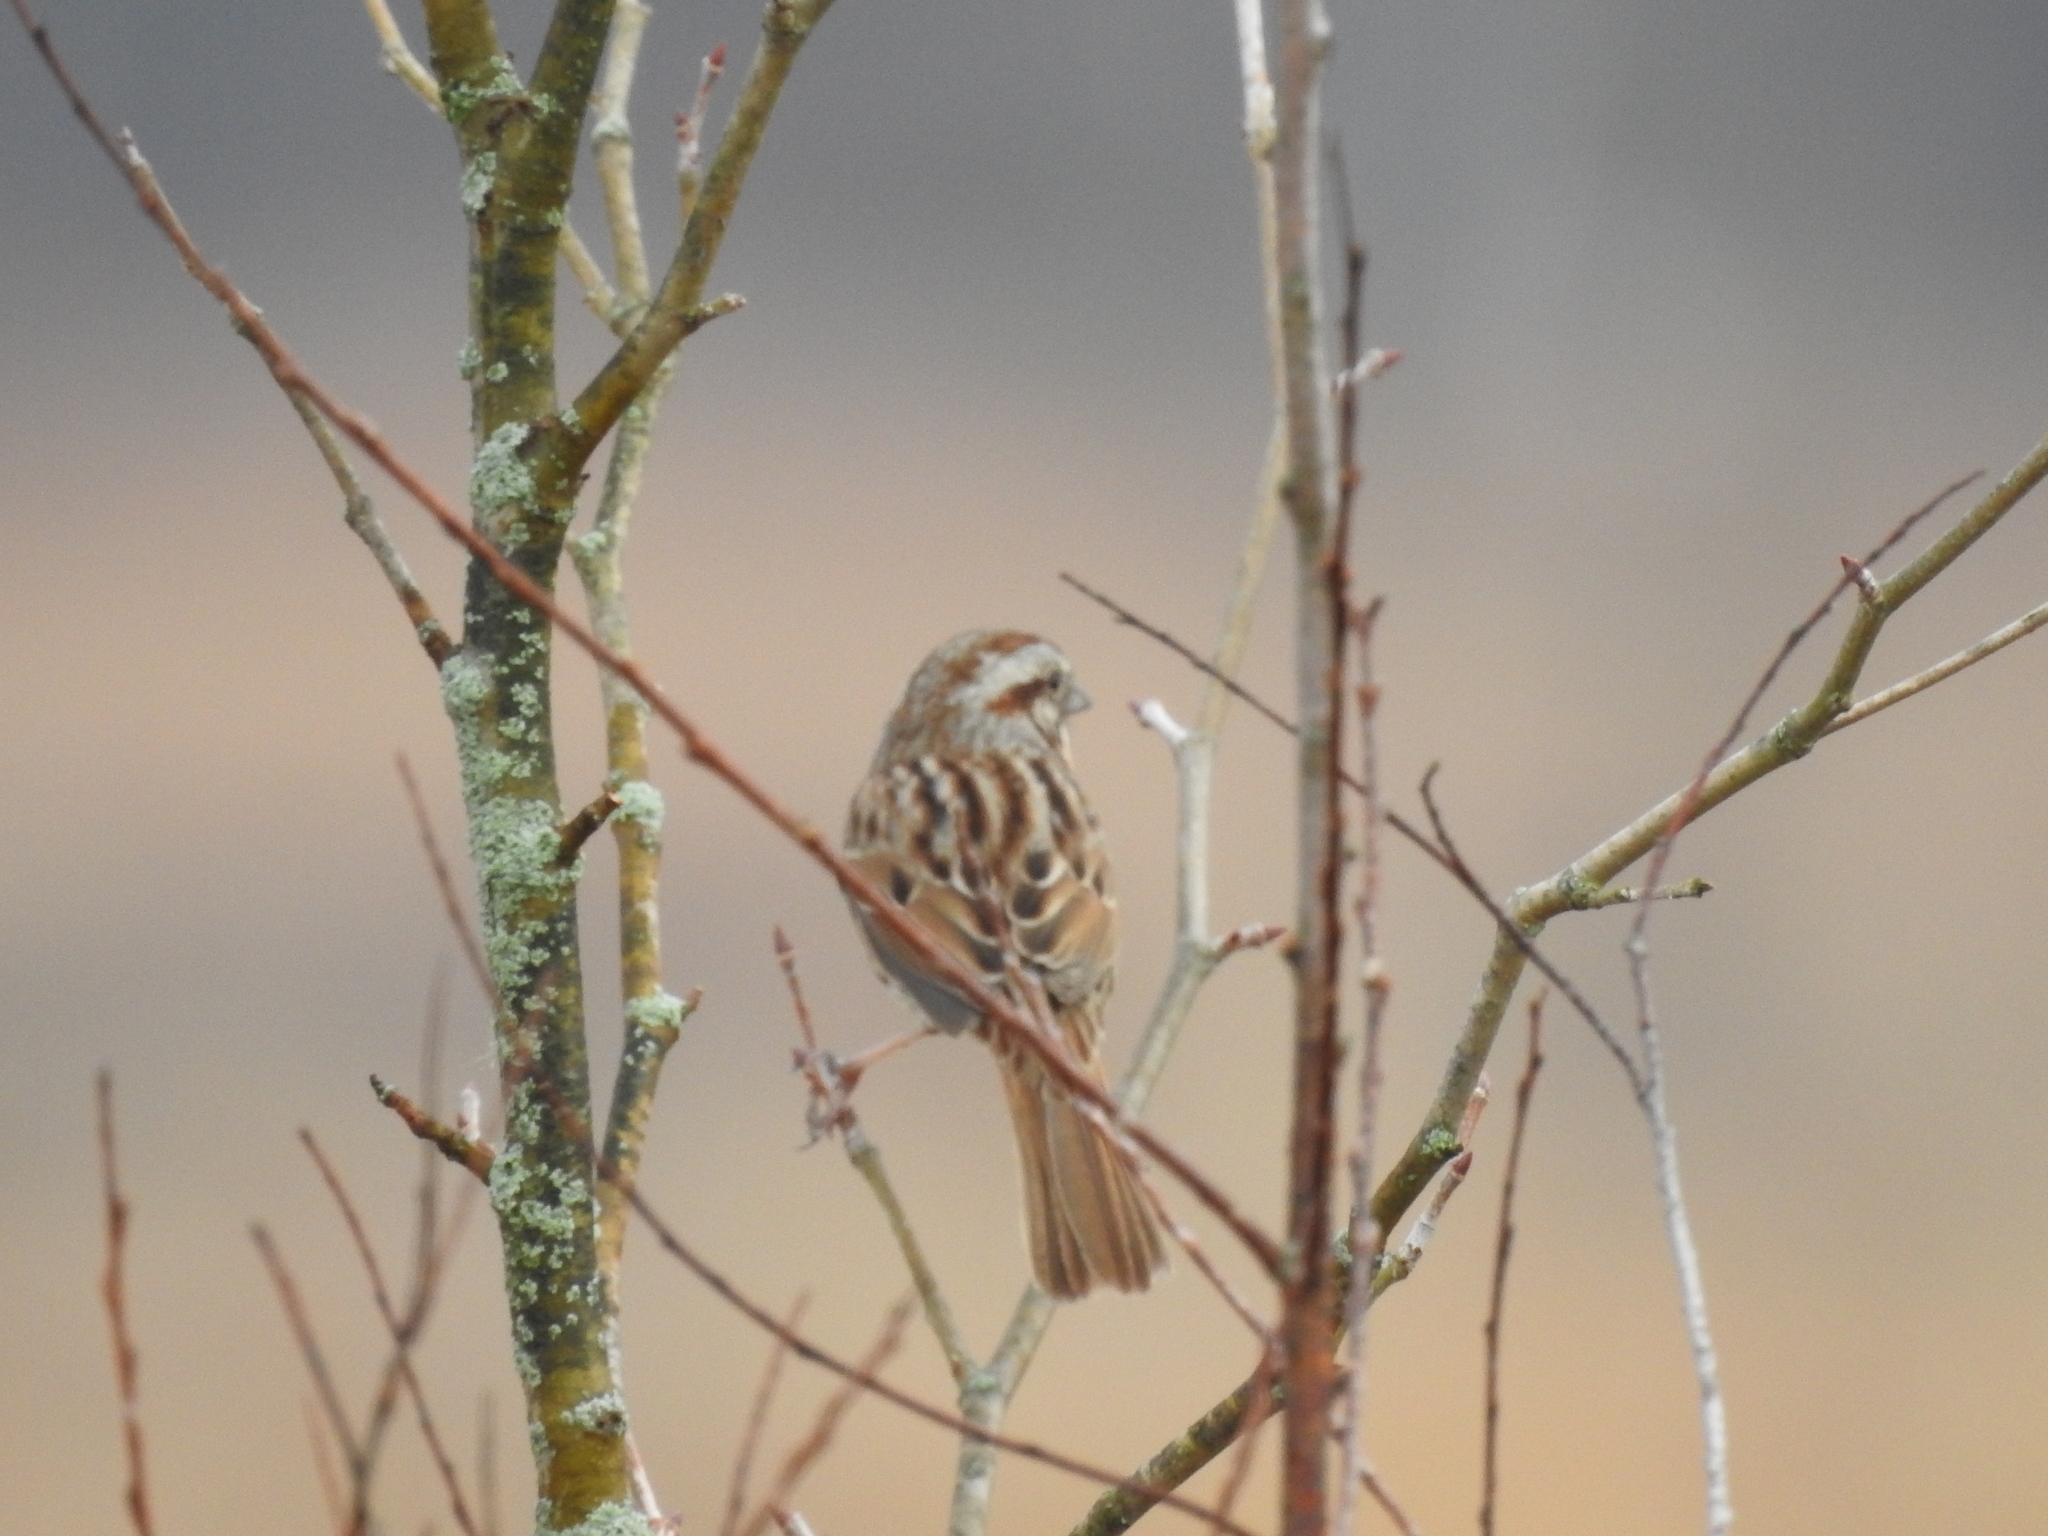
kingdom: Animalia
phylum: Chordata
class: Aves
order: Passeriformes
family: Passerellidae
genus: Melospiza
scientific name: Melospiza melodia
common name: Song sparrow
